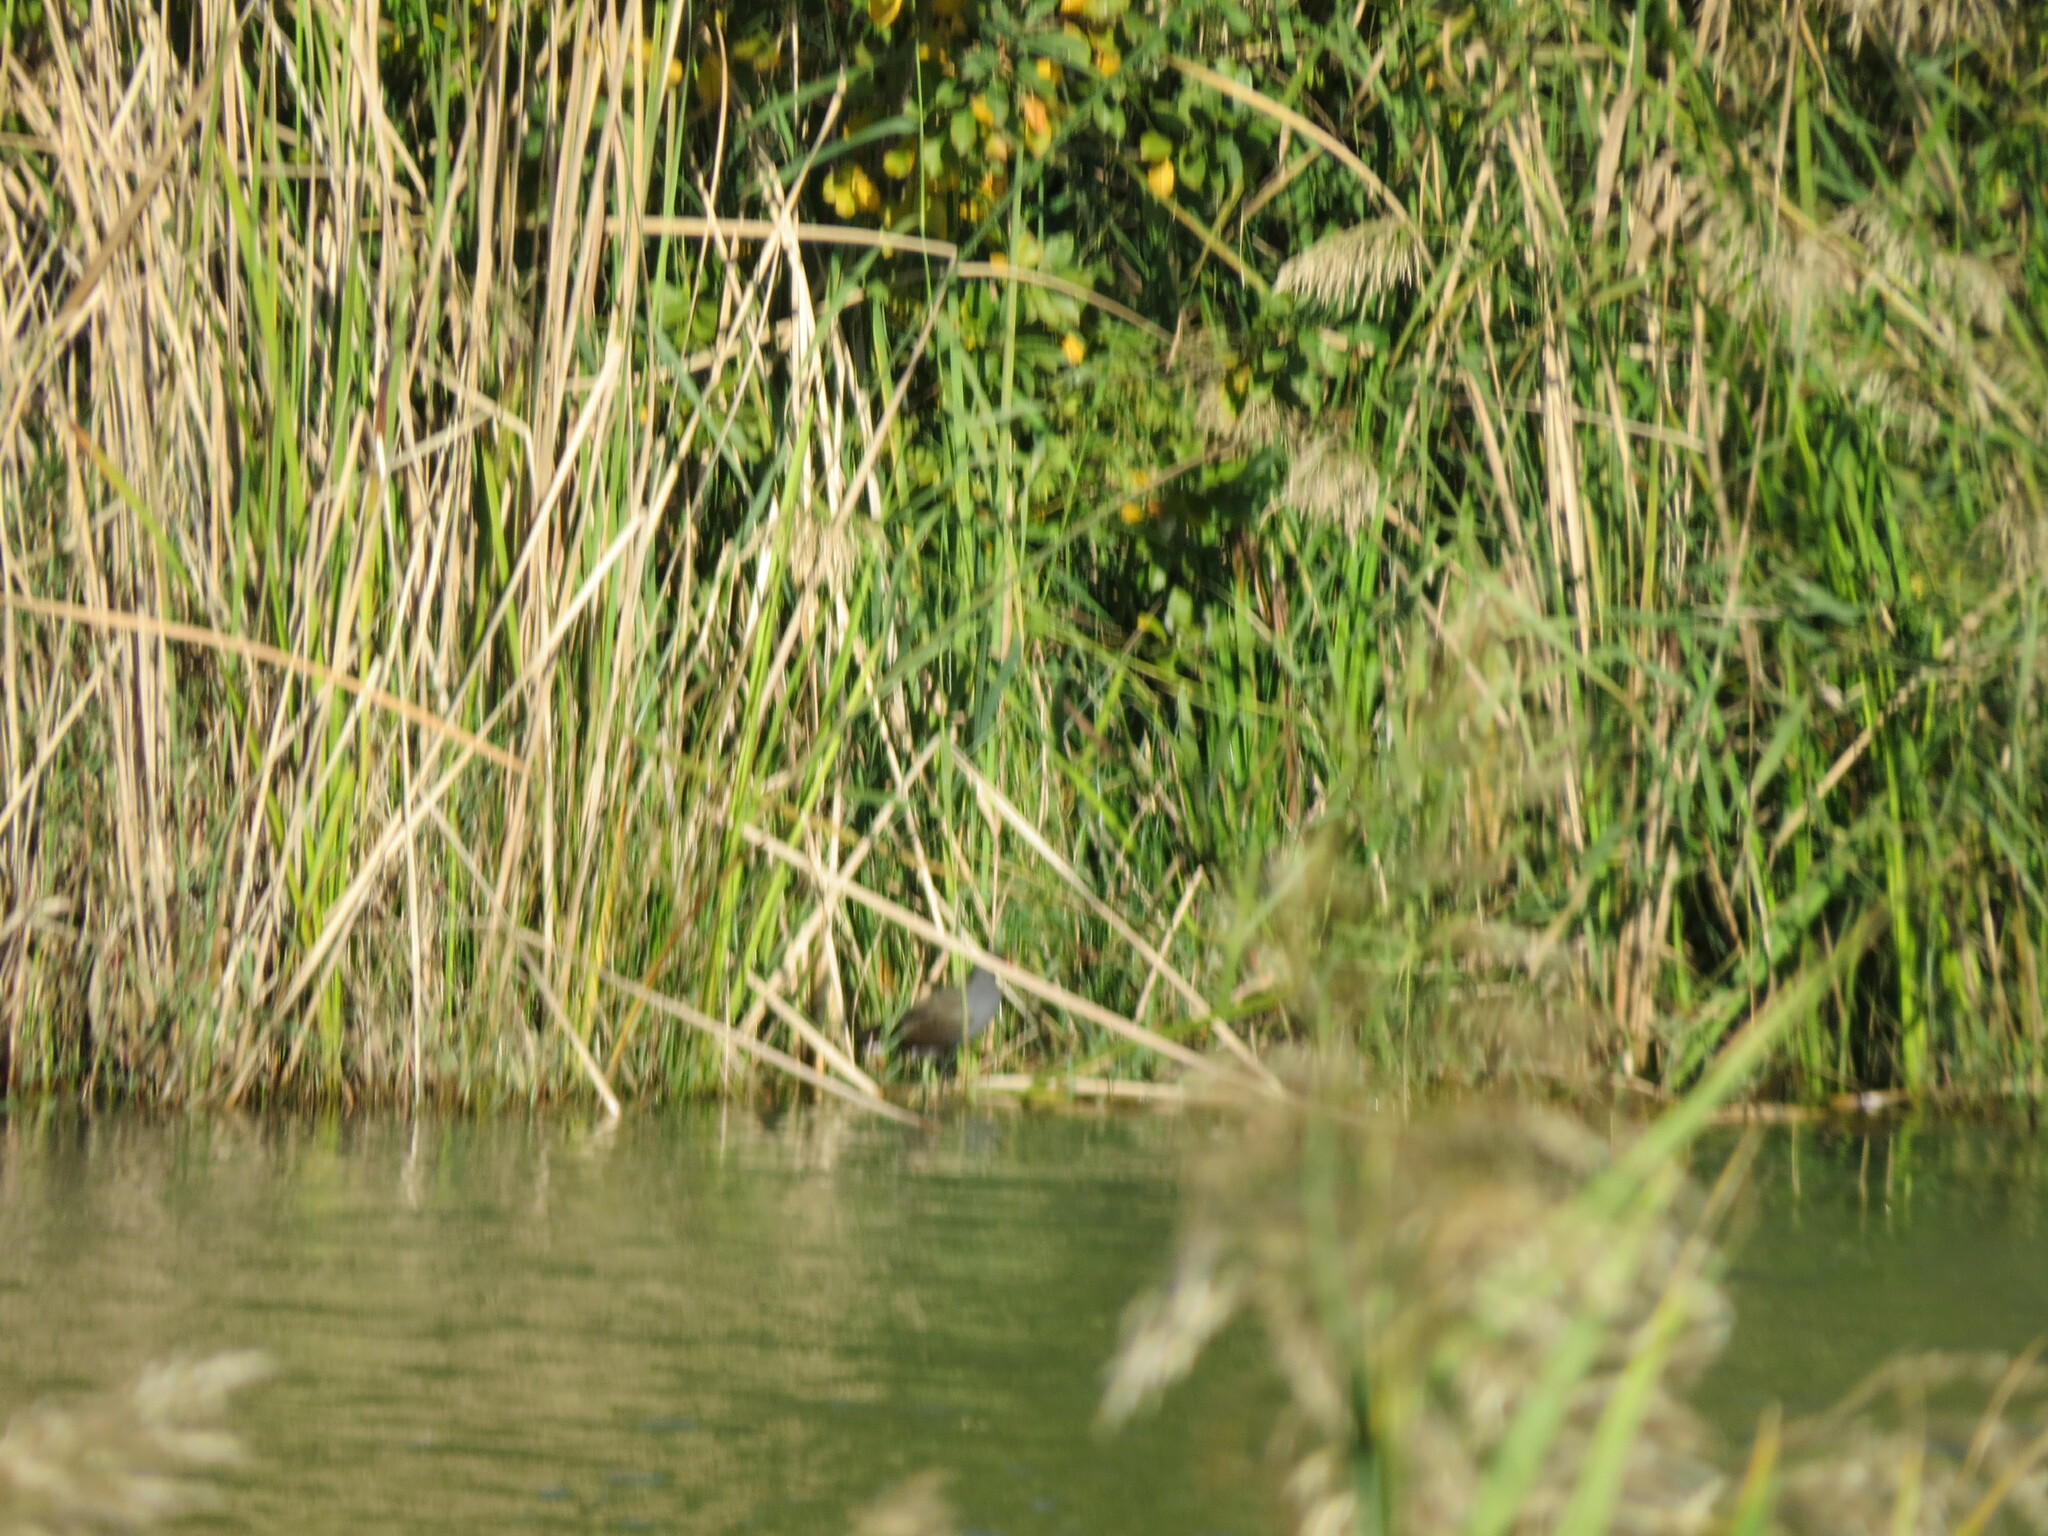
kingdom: Animalia
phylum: Chordata
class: Aves
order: Gruiformes
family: Rallidae
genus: Gallinula
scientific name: Gallinula chloropus
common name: Common moorhen
